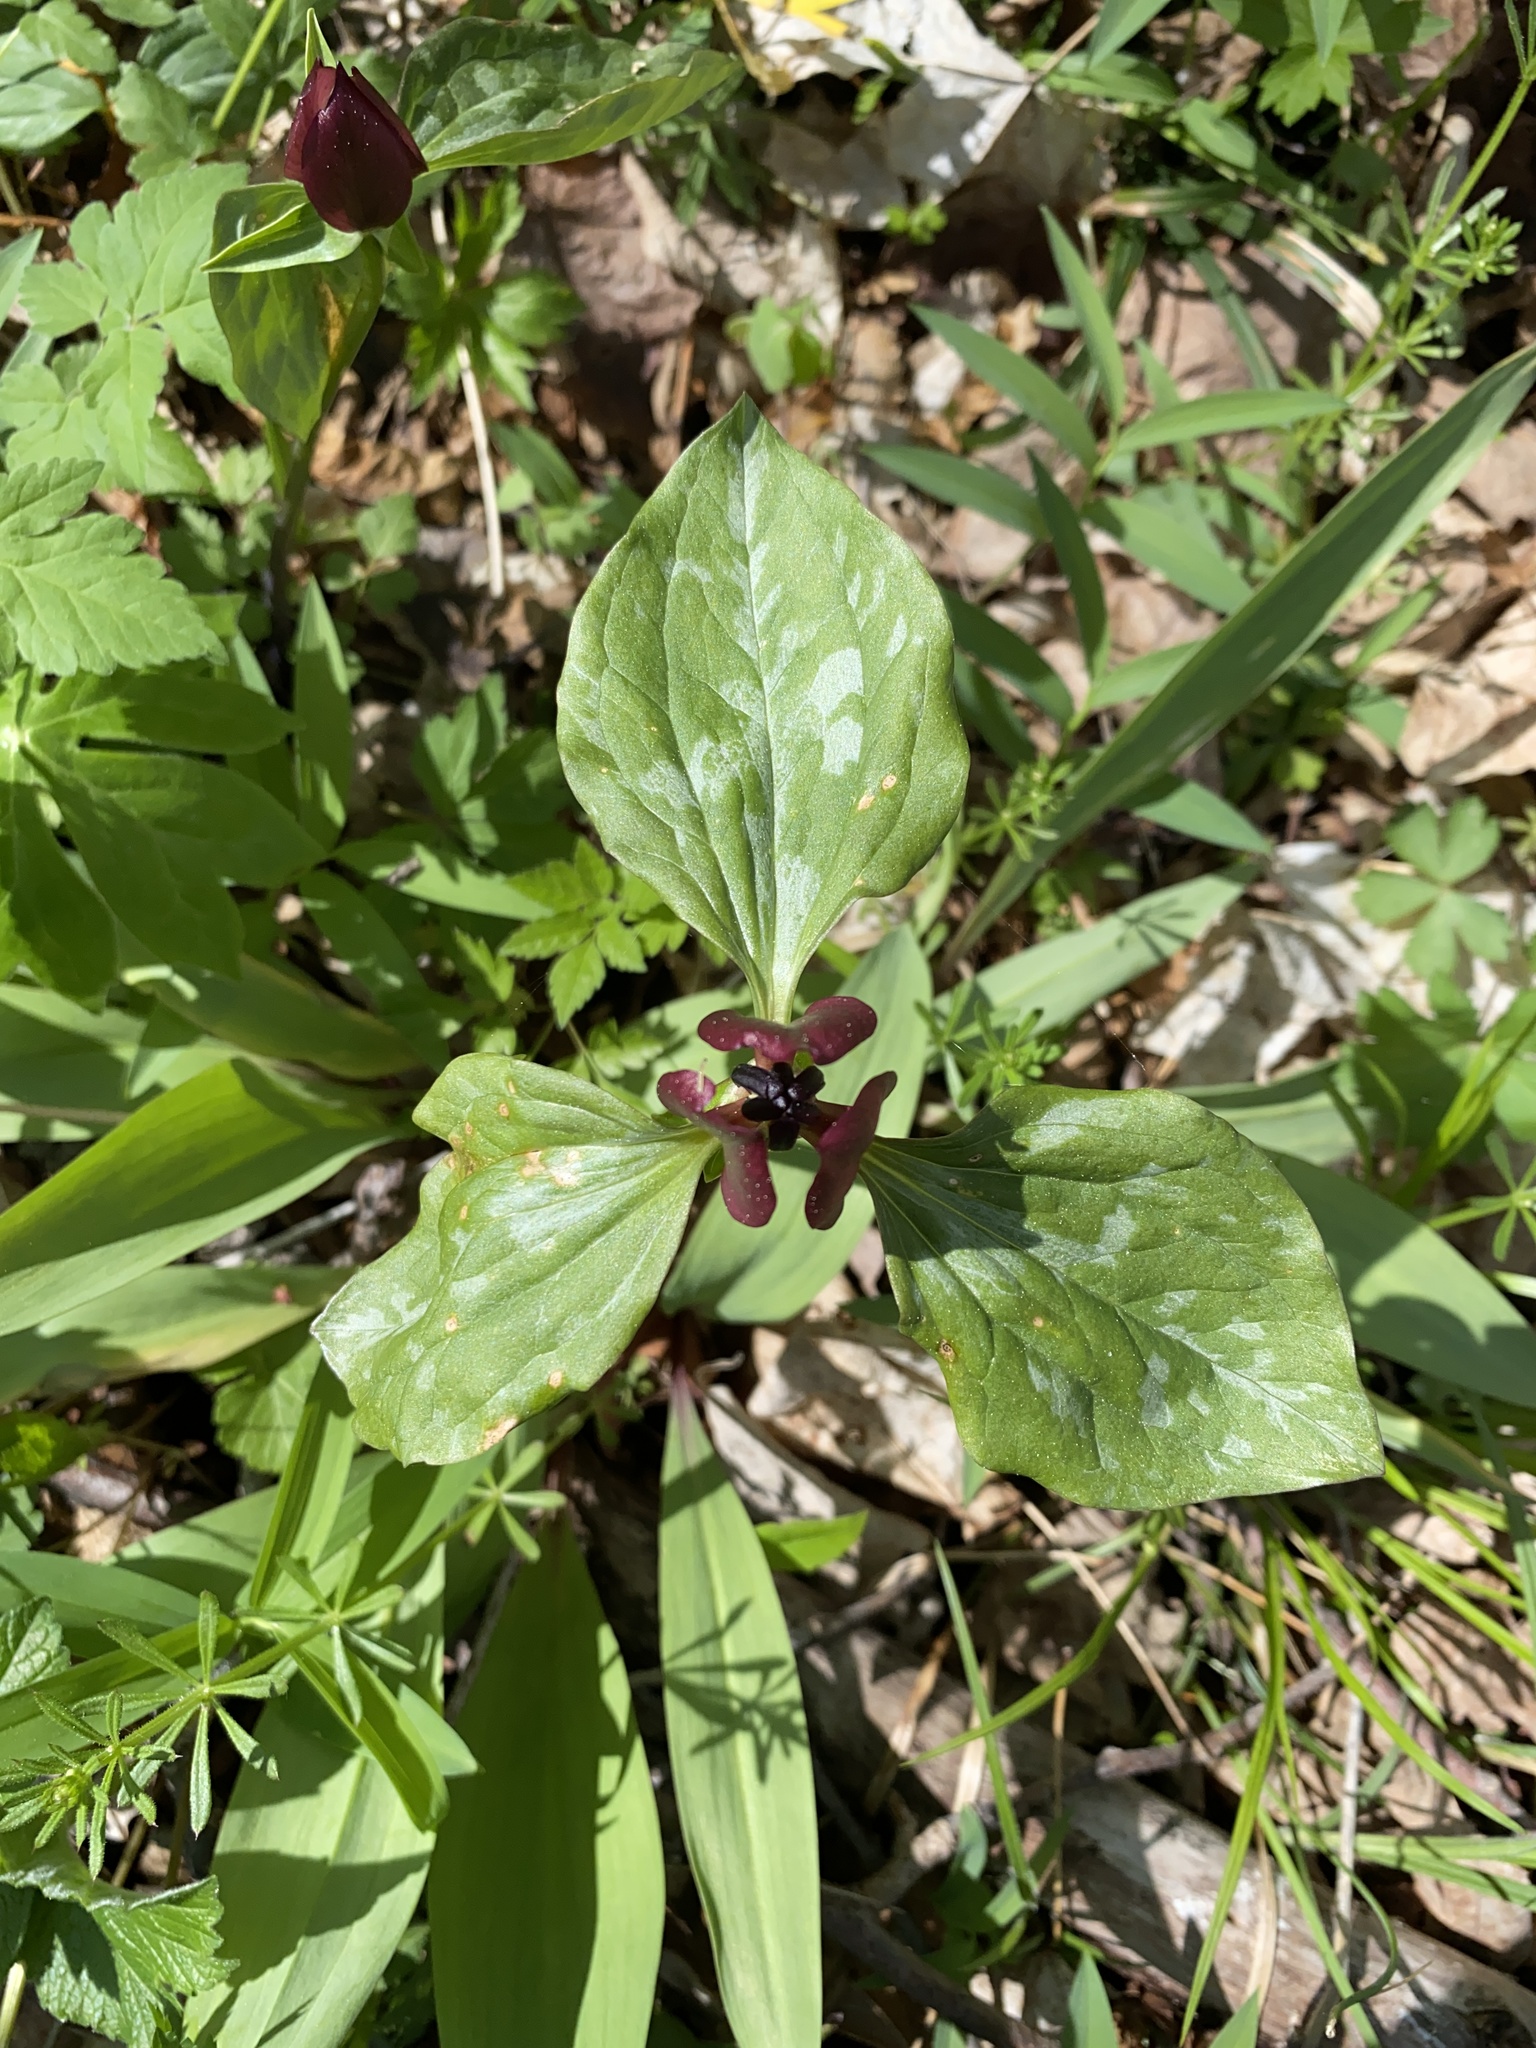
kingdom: Plantae
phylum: Tracheophyta
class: Liliopsida
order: Liliales
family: Melanthiaceae
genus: Trillium
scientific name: Trillium recurvatum
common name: Bloody butcher
